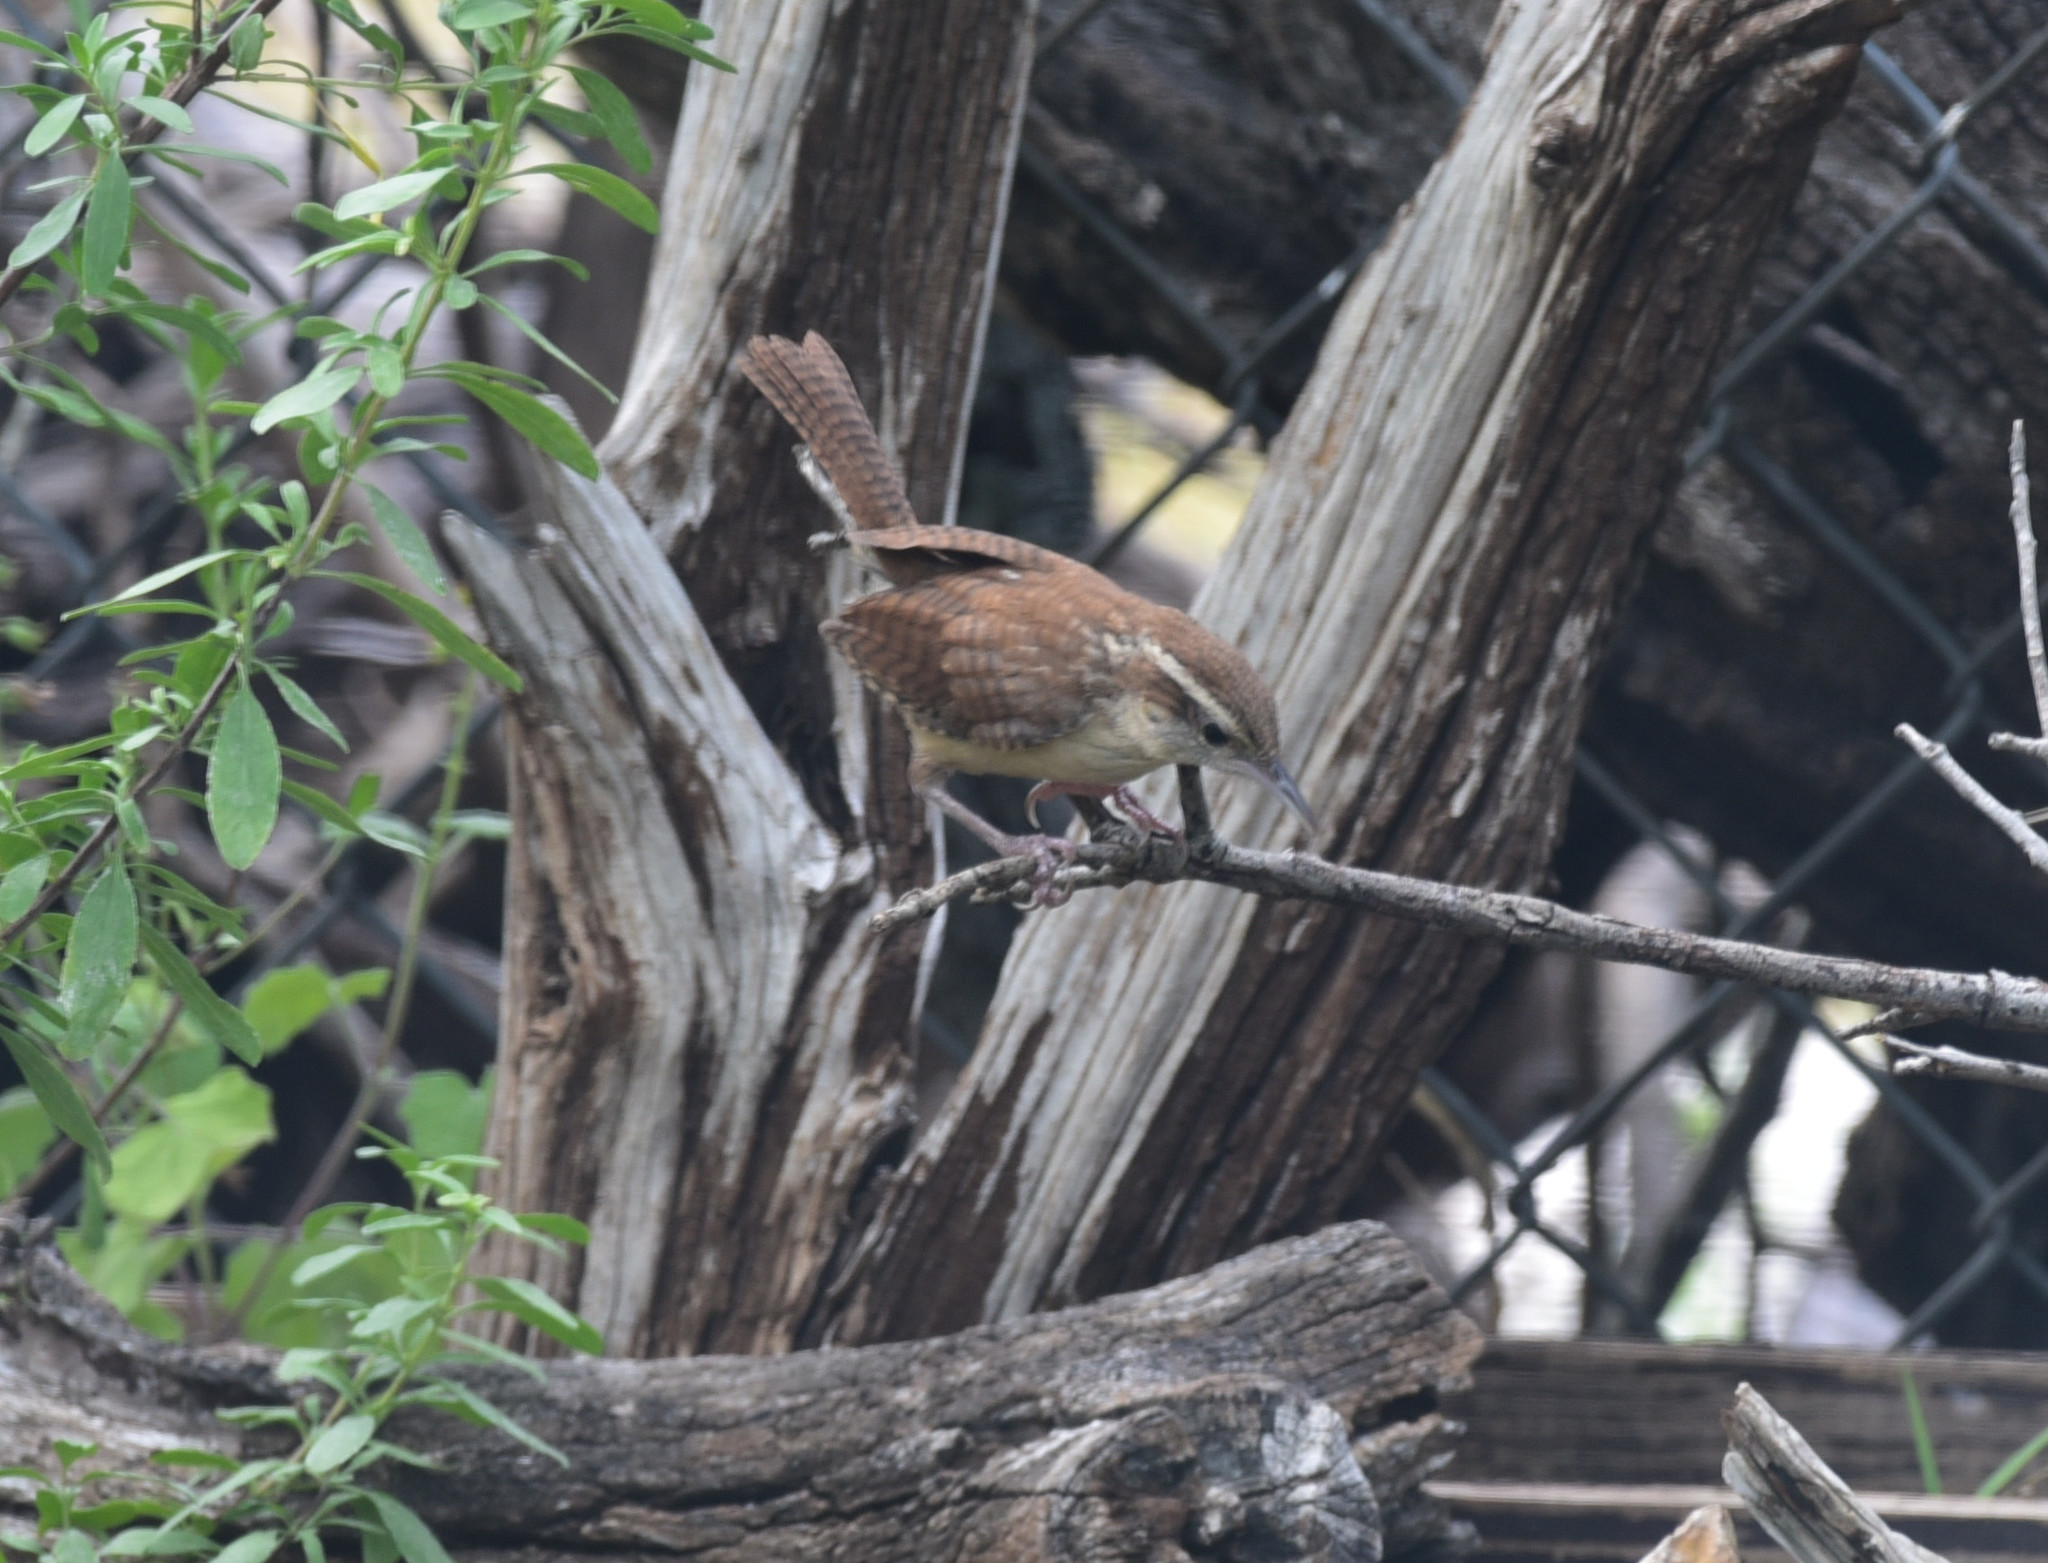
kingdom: Animalia
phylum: Chordata
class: Aves
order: Passeriformes
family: Troglodytidae
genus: Thryothorus
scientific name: Thryothorus ludovicianus
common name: Carolina wren
